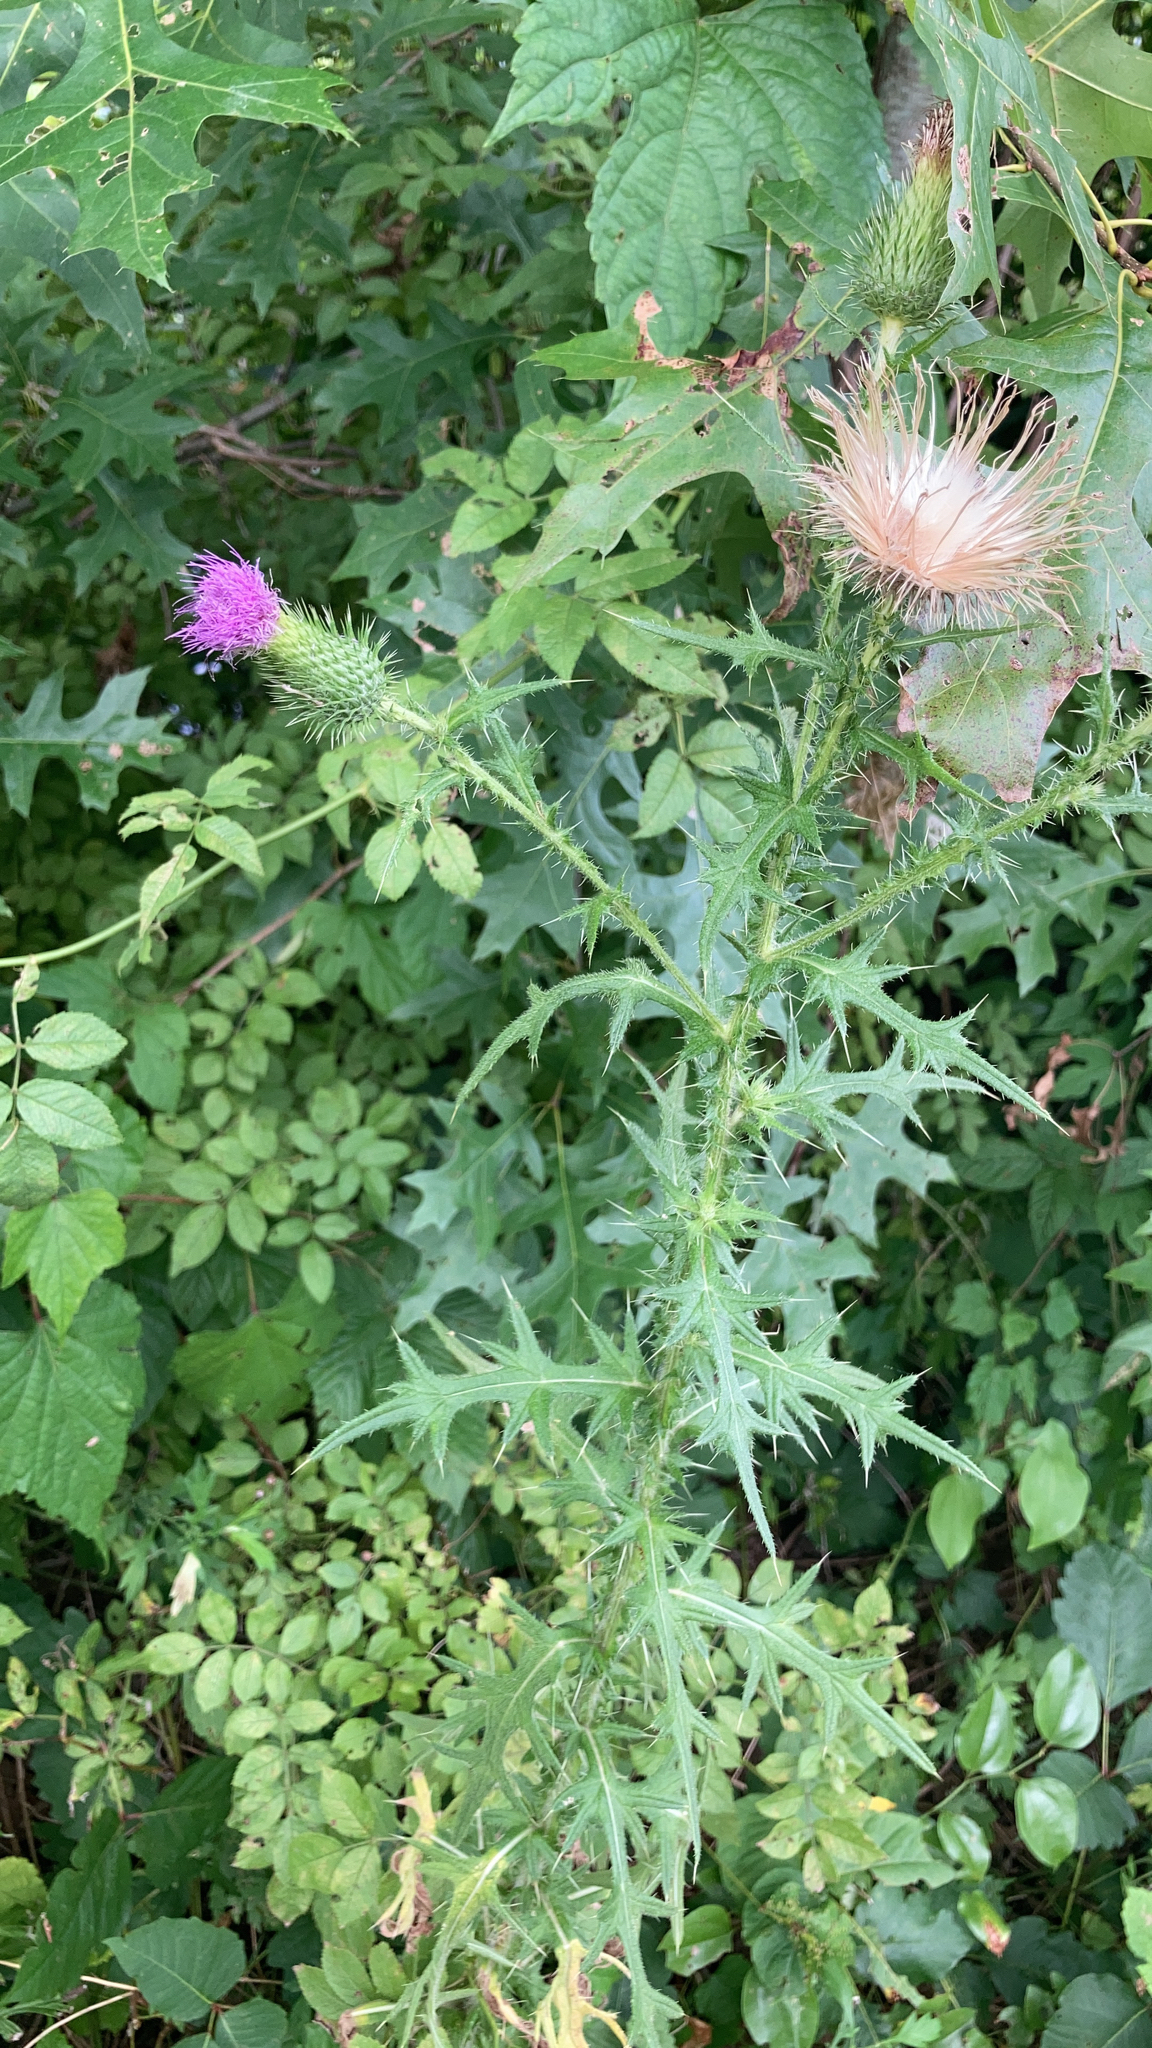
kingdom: Plantae
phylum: Tracheophyta
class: Magnoliopsida
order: Asterales
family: Asteraceae
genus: Cirsium
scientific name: Cirsium vulgare
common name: Bull thistle
